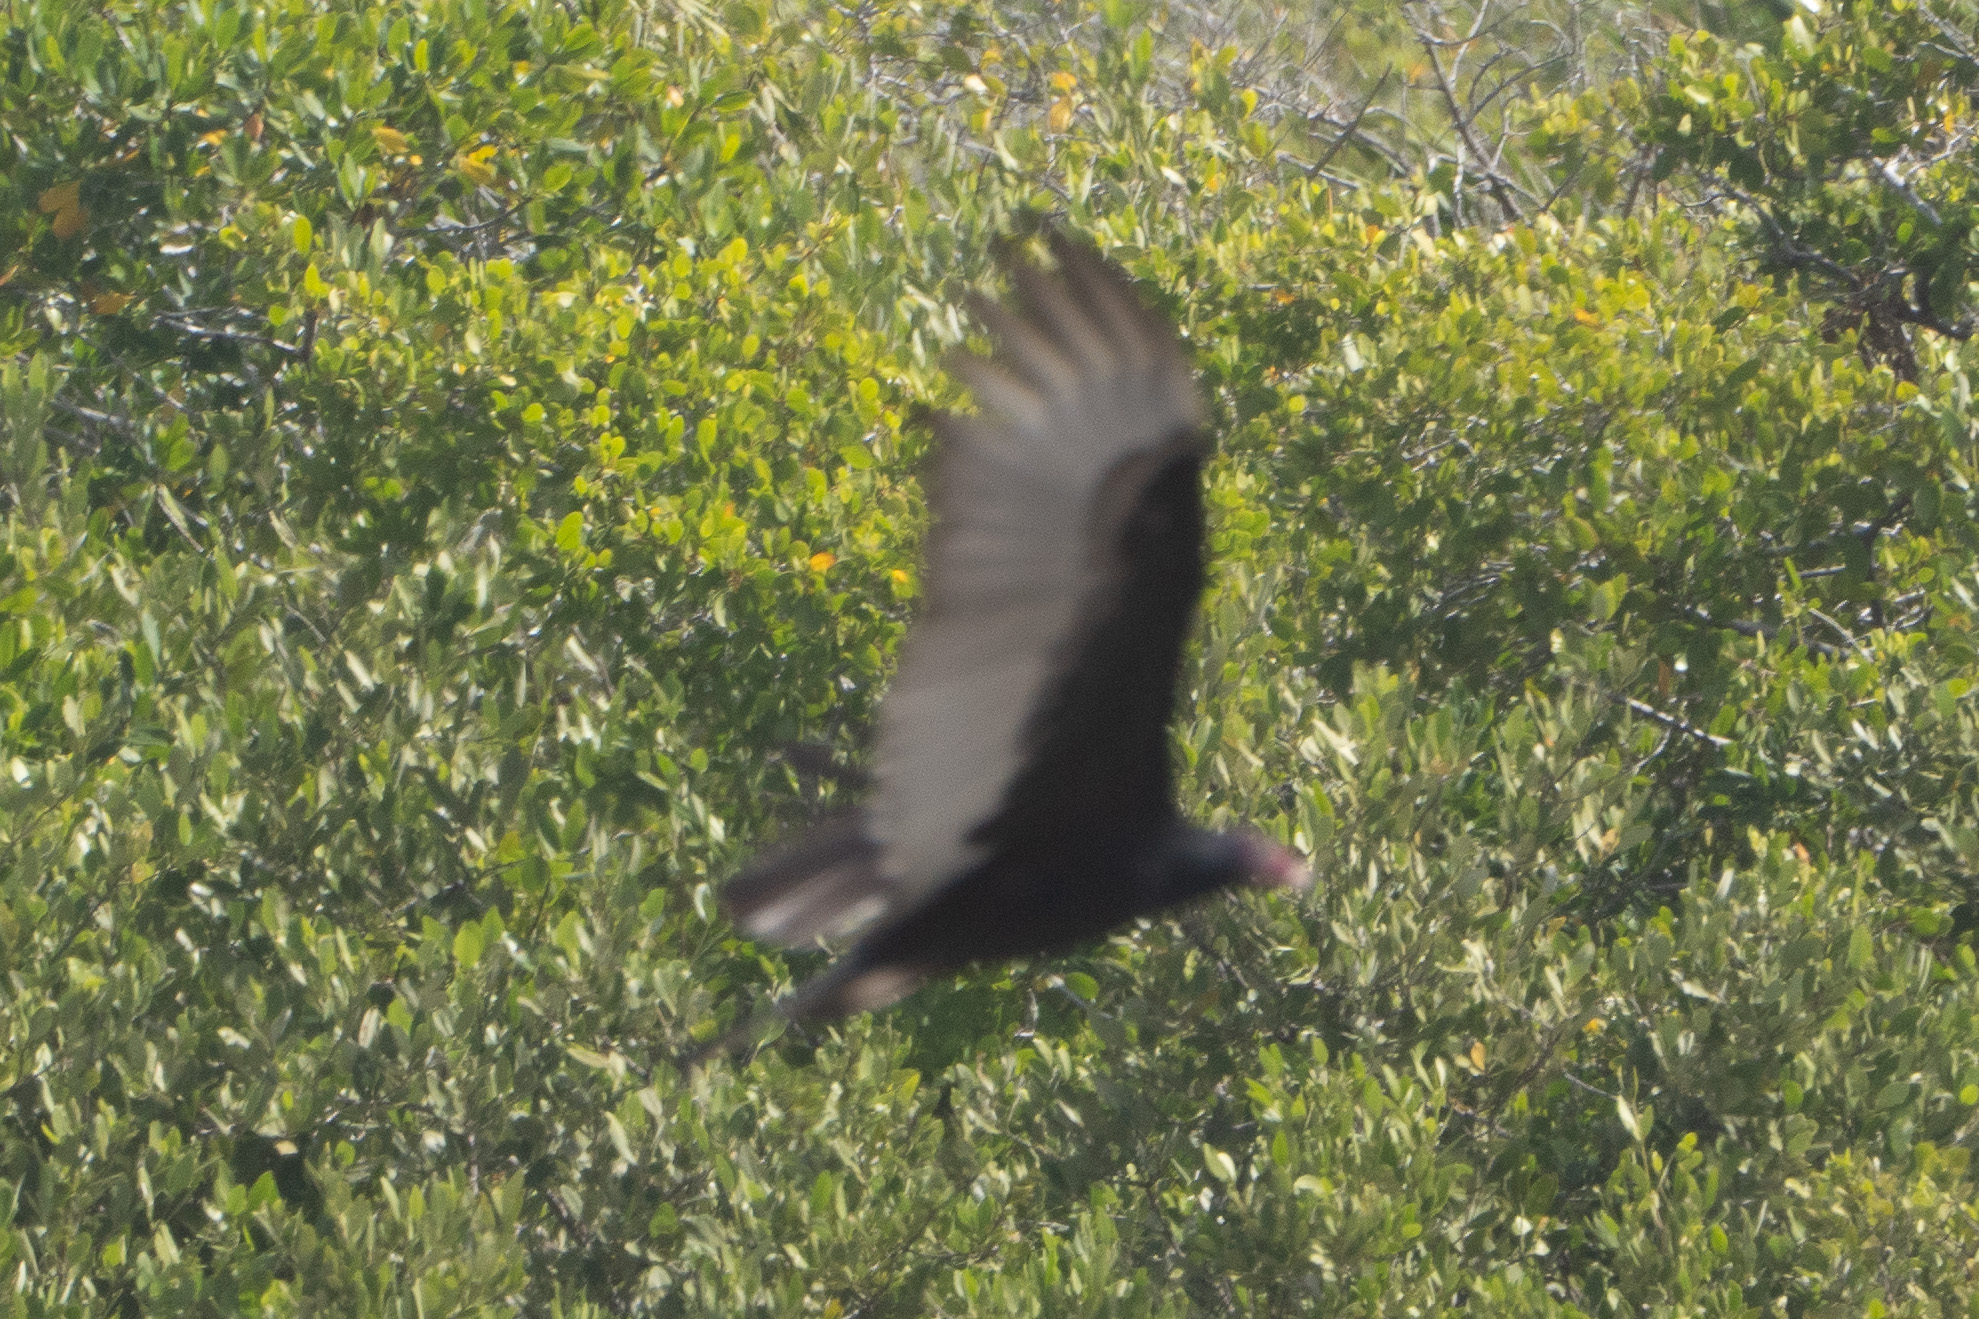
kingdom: Animalia
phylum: Chordata
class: Aves
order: Accipitriformes
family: Cathartidae
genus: Cathartes
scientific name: Cathartes aura
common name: Turkey vulture
